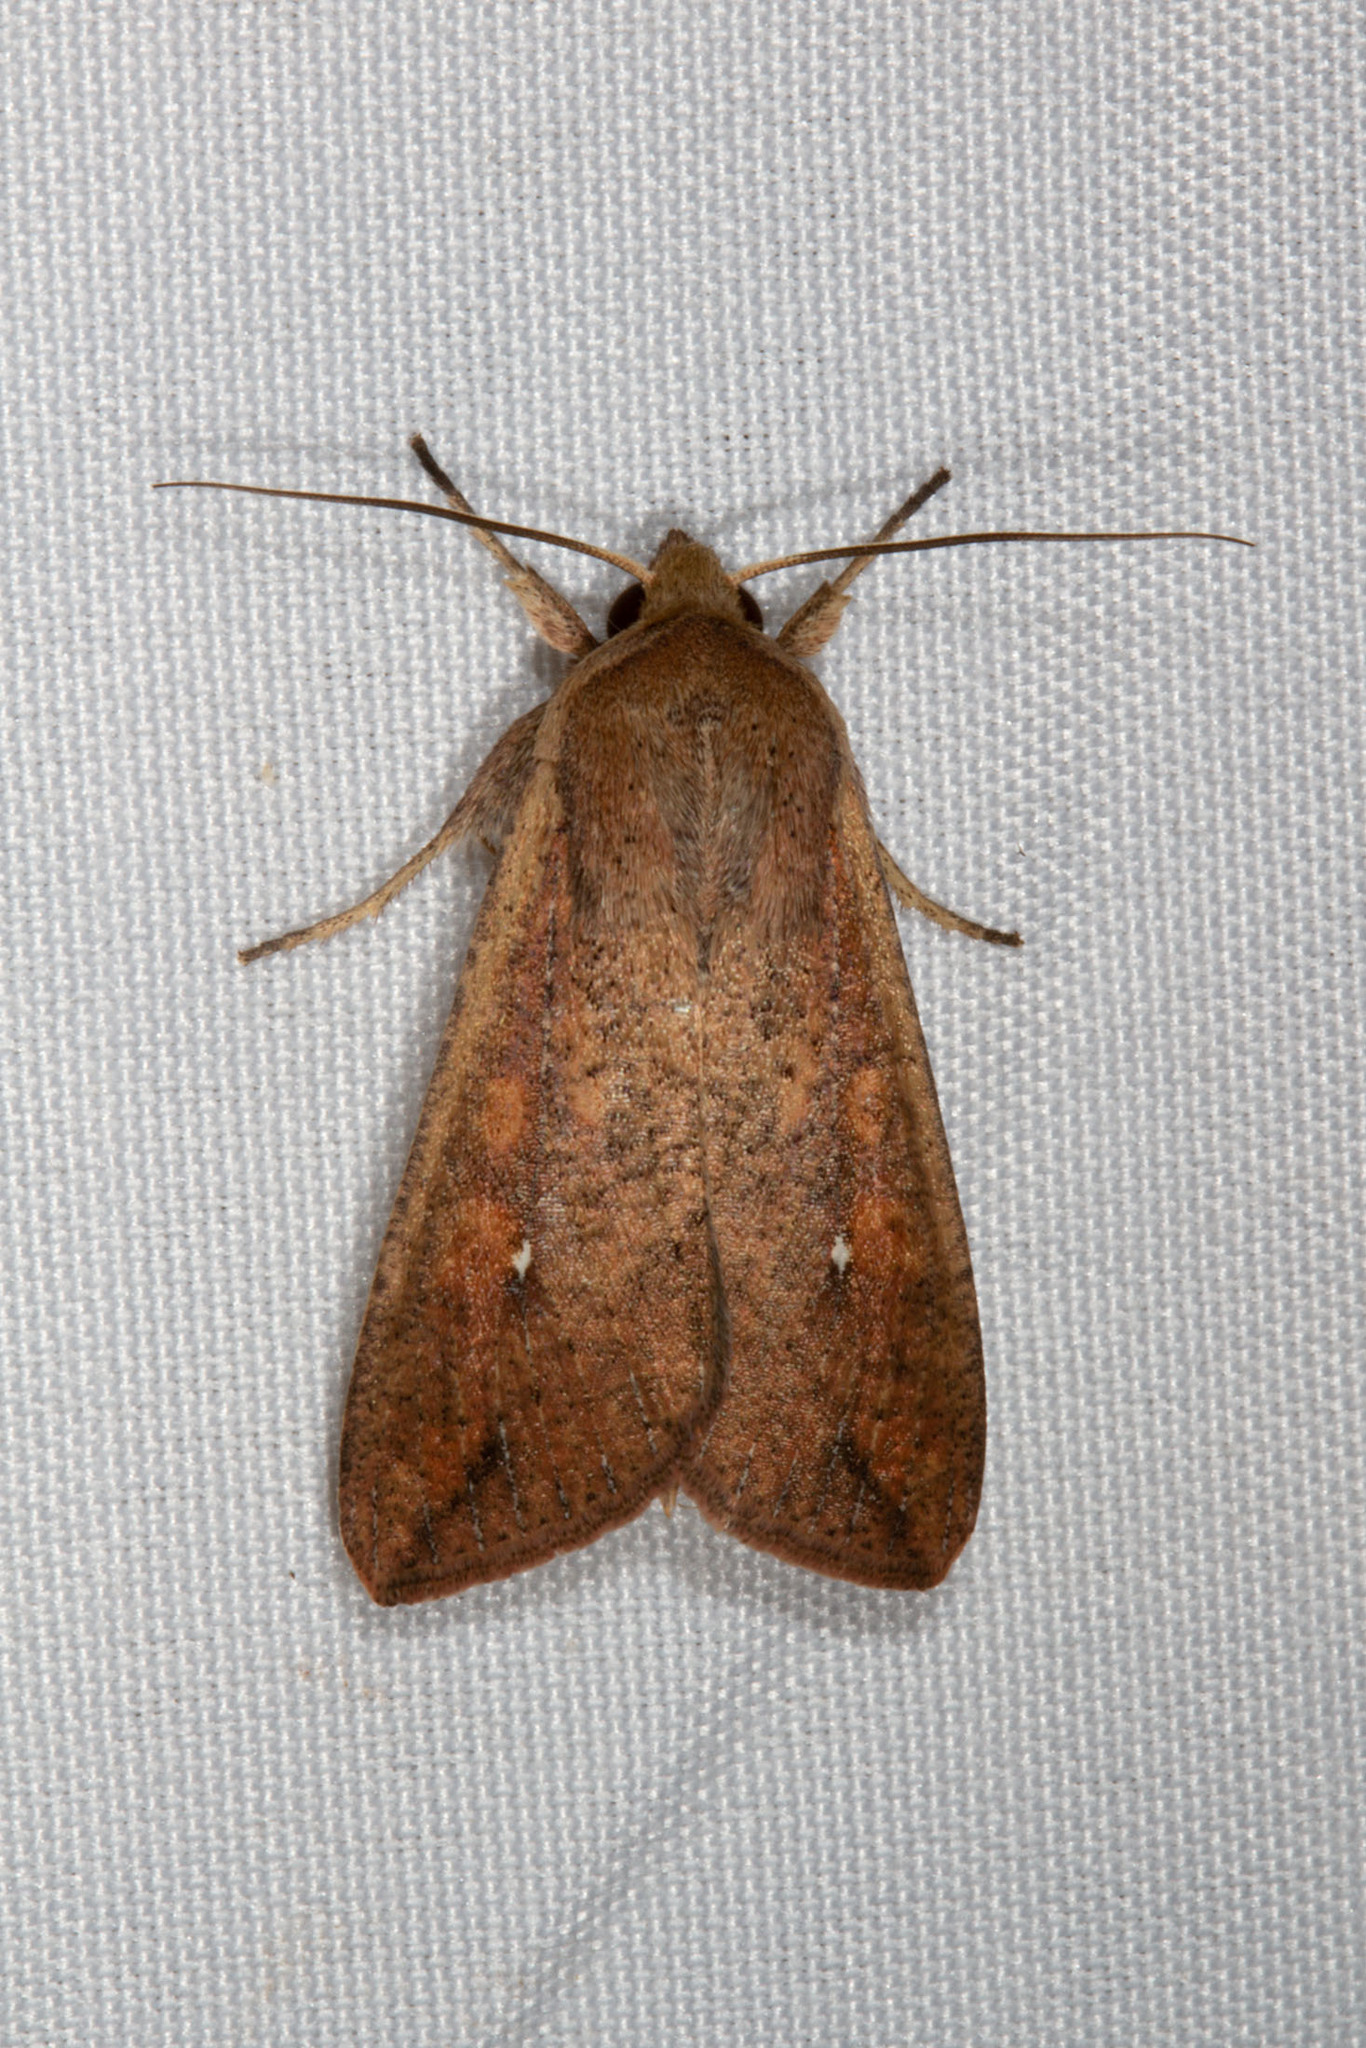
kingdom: Animalia
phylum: Arthropoda
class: Insecta
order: Lepidoptera
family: Noctuidae
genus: Mythimna
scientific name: Mythimna unipuncta
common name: White-speck
